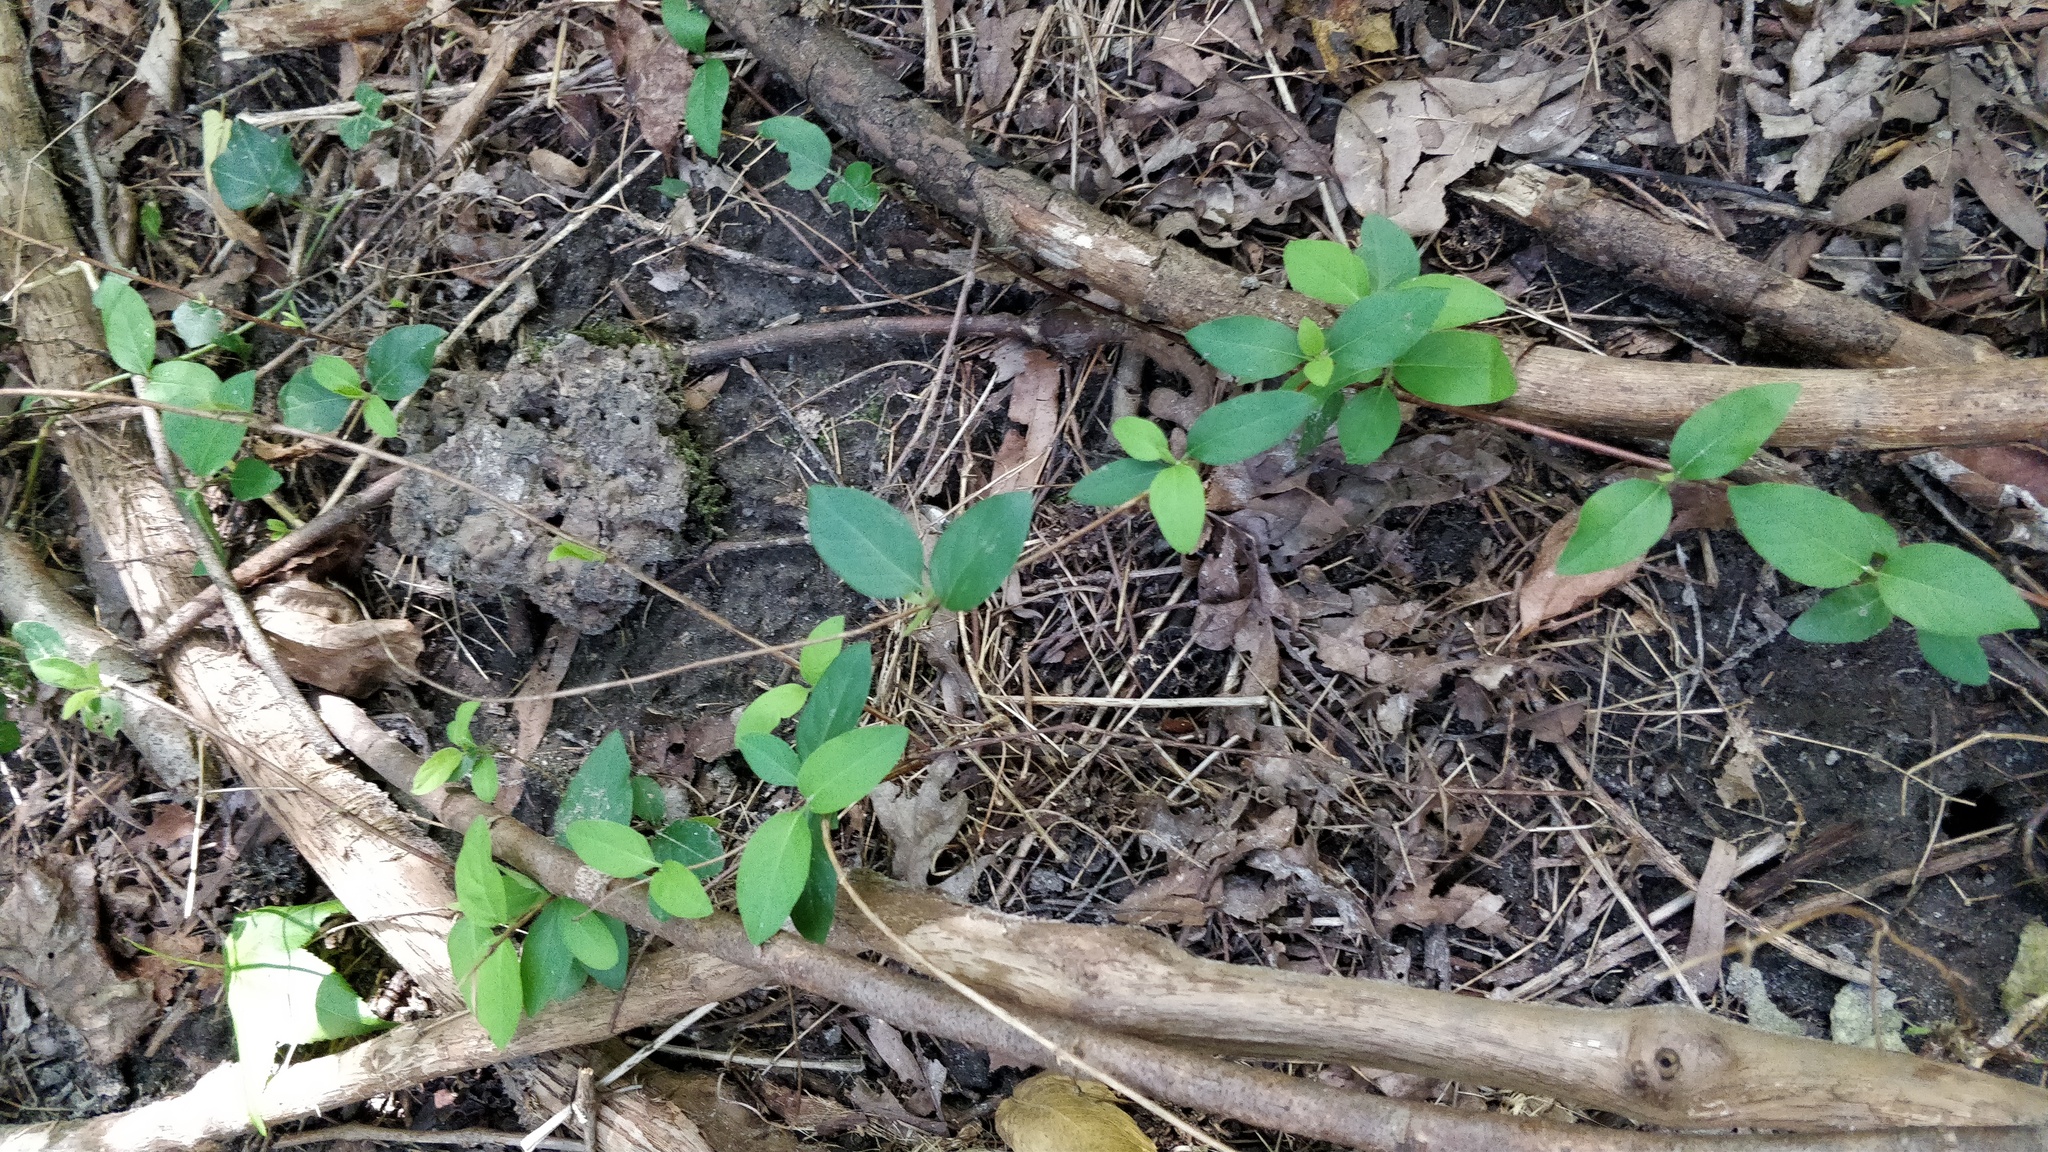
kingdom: Plantae
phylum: Tracheophyta
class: Magnoliopsida
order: Dipsacales
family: Caprifoliaceae
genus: Lonicera
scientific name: Lonicera japonica
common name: Japanese honeysuckle
